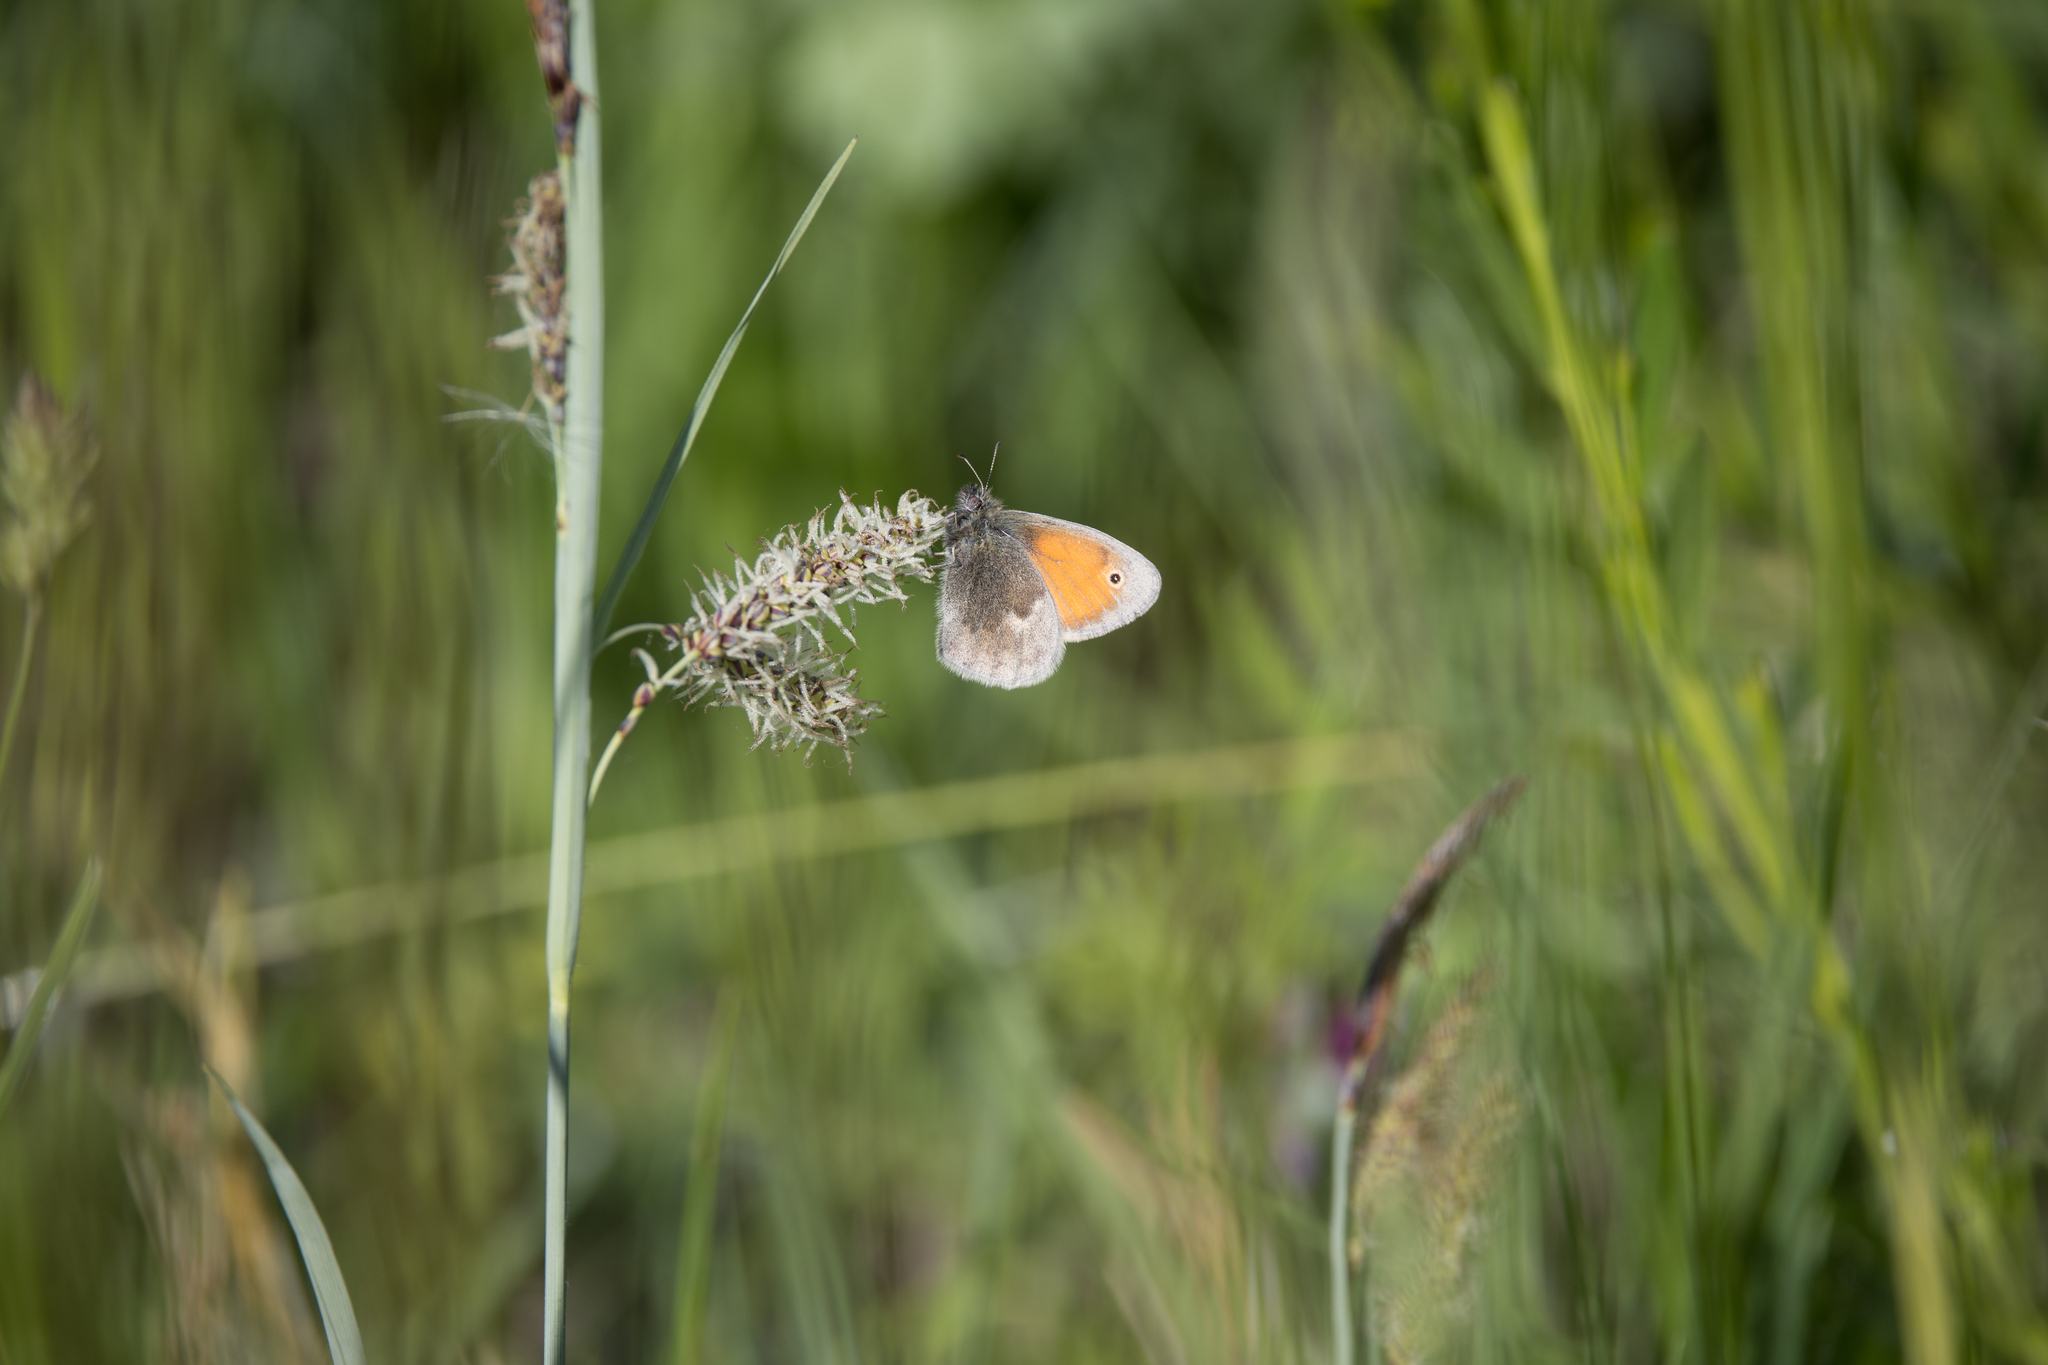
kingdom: Animalia
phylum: Arthropoda
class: Insecta
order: Lepidoptera
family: Nymphalidae
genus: Coenonympha
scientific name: Coenonympha pamphilus
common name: Small heath
